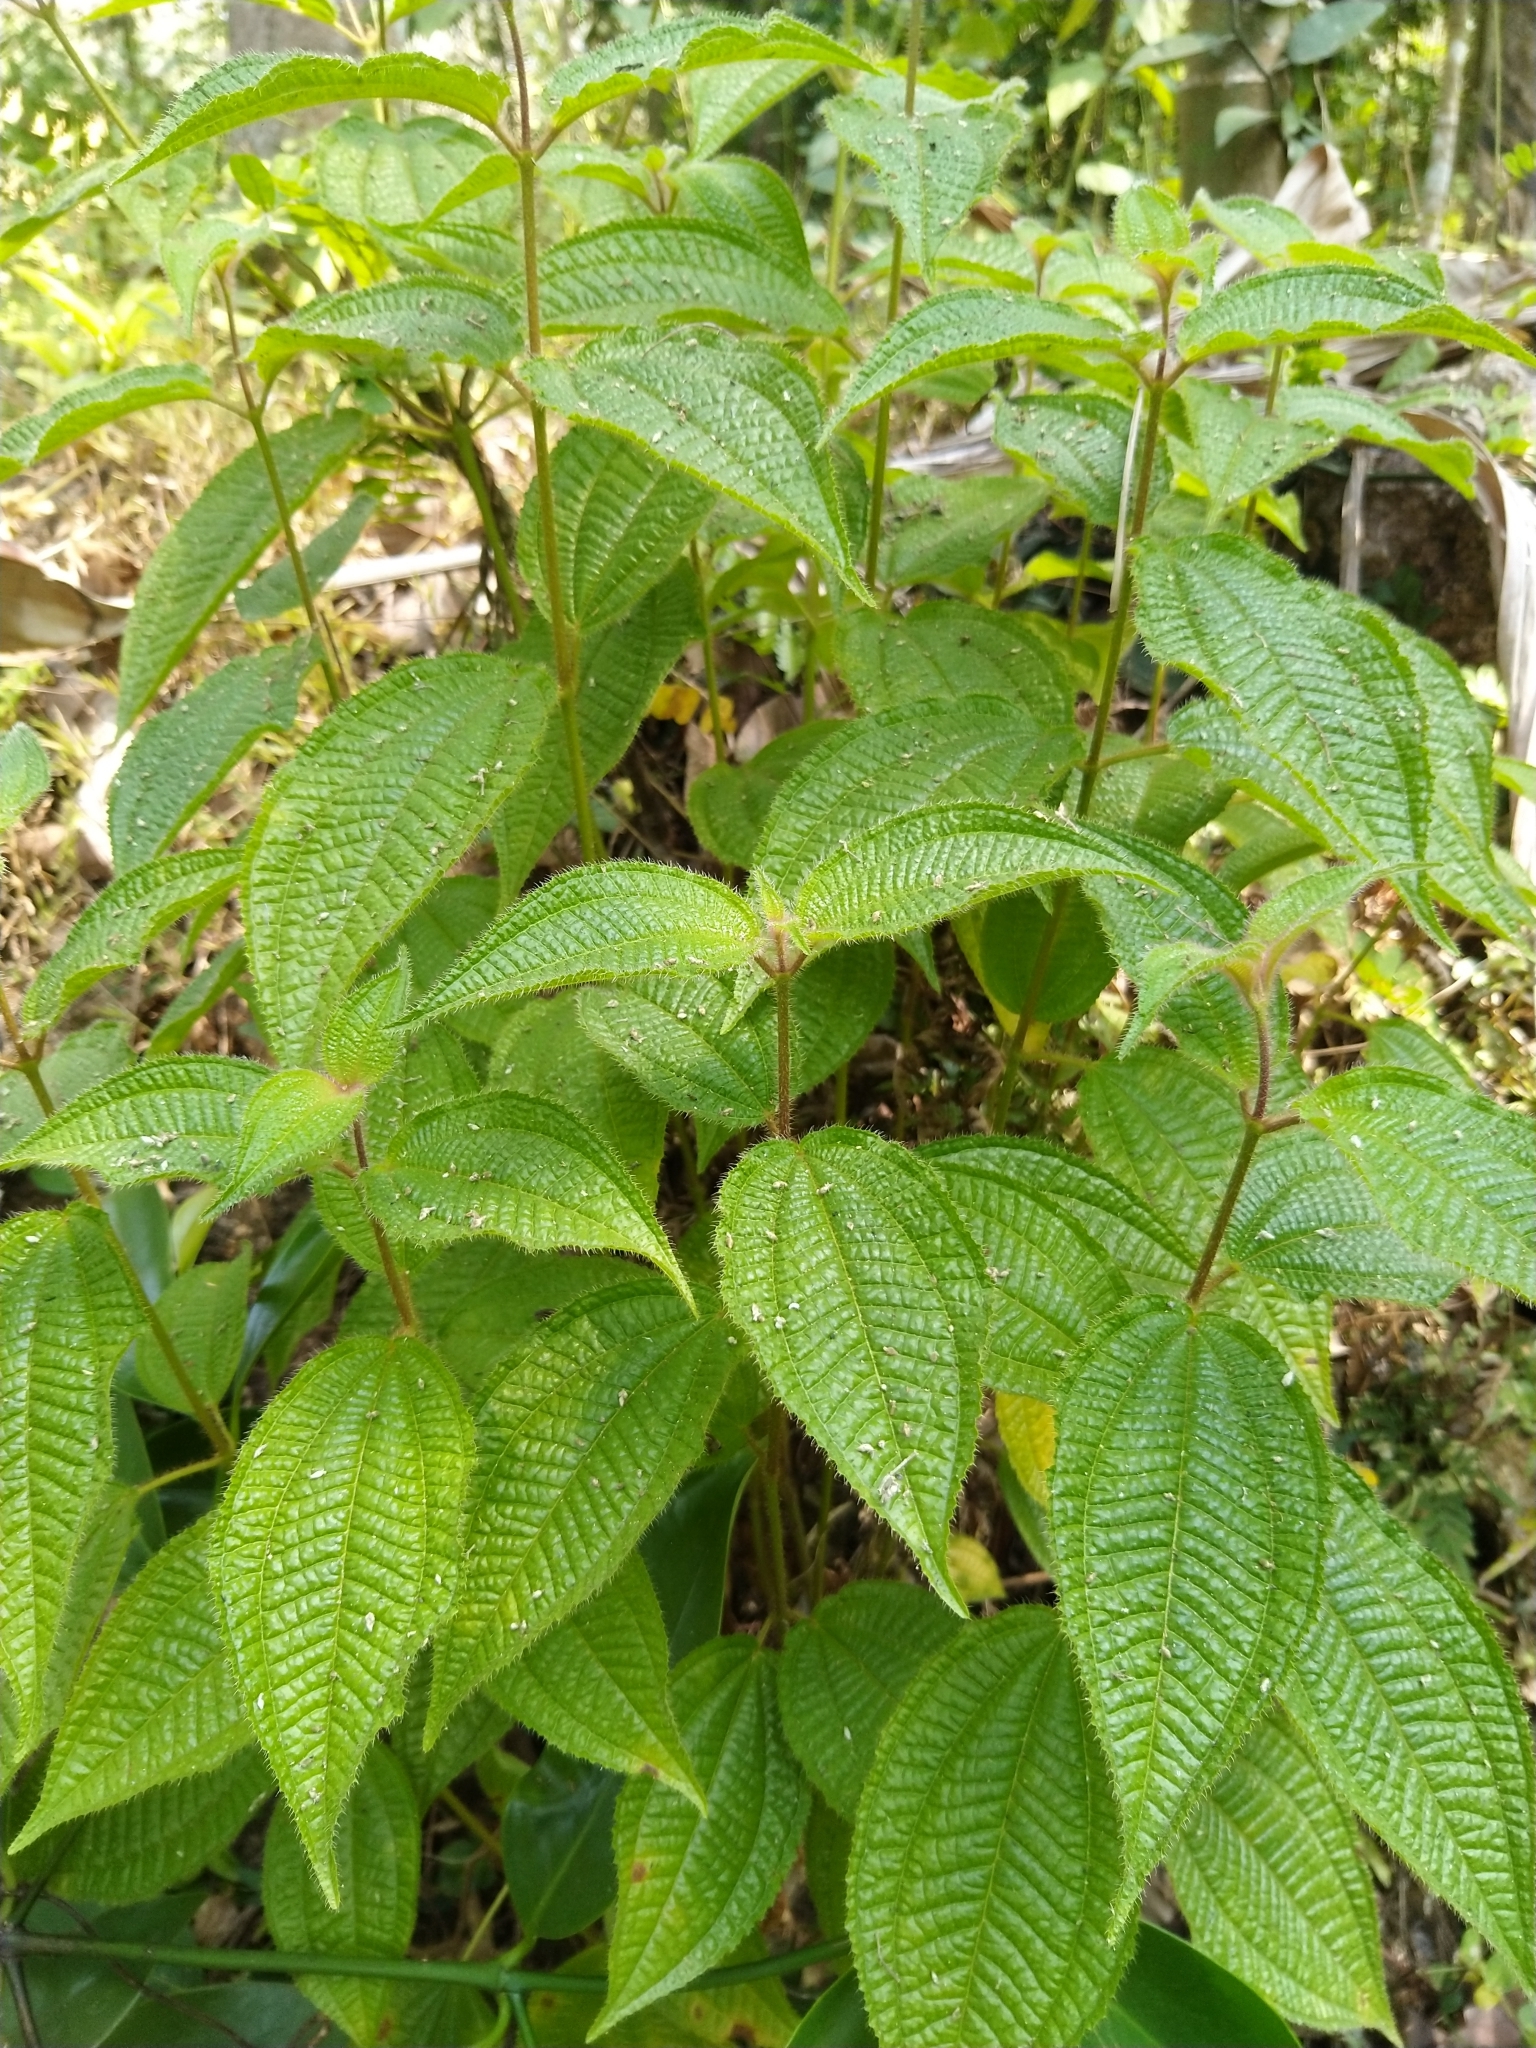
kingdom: Plantae
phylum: Tracheophyta
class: Magnoliopsida
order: Myrtales
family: Melastomataceae
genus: Miconia
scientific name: Miconia crenata
